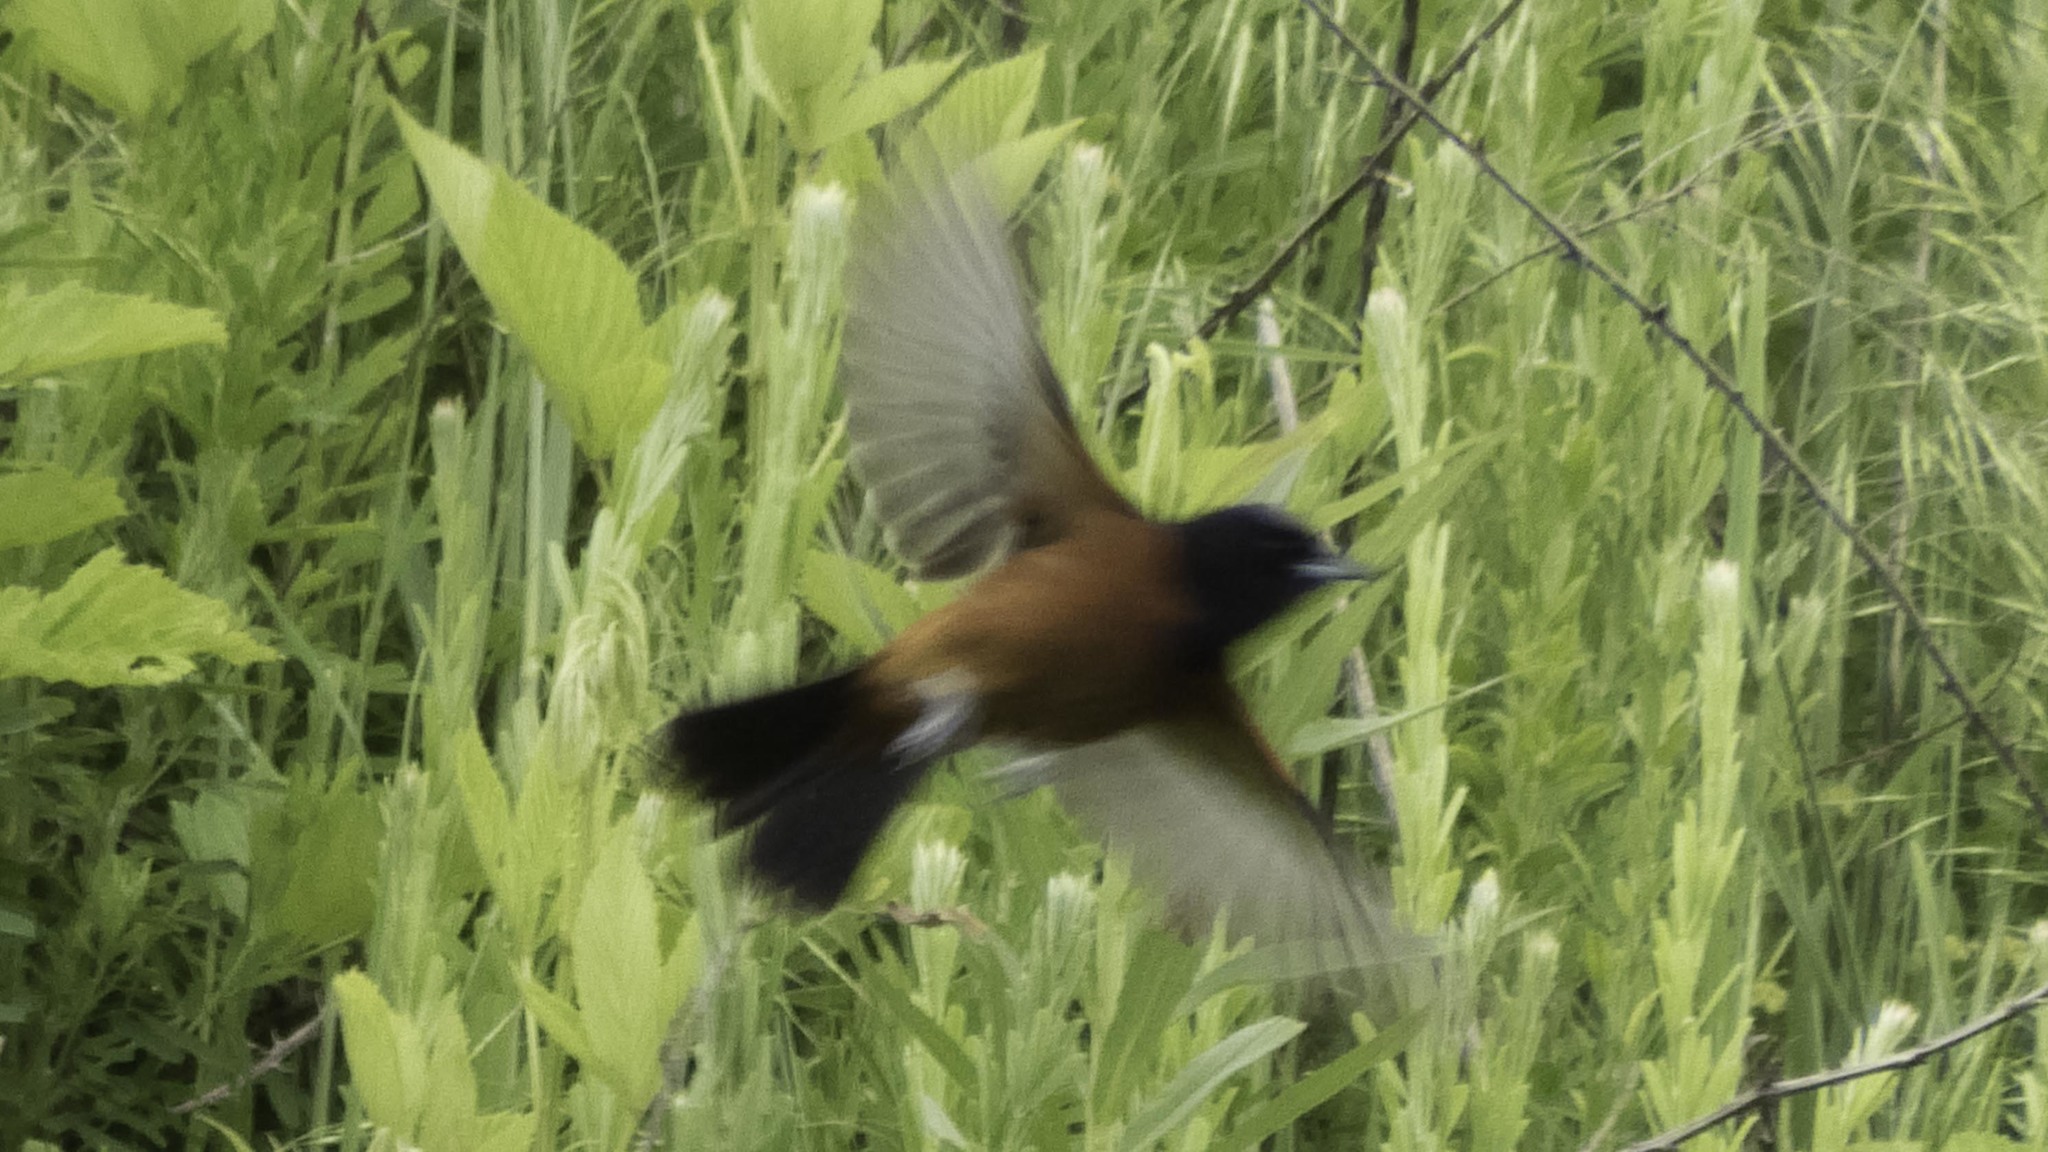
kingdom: Animalia
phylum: Chordata
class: Aves
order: Passeriformes
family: Icteridae
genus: Icterus
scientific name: Icterus spurius
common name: Orchard oriole
